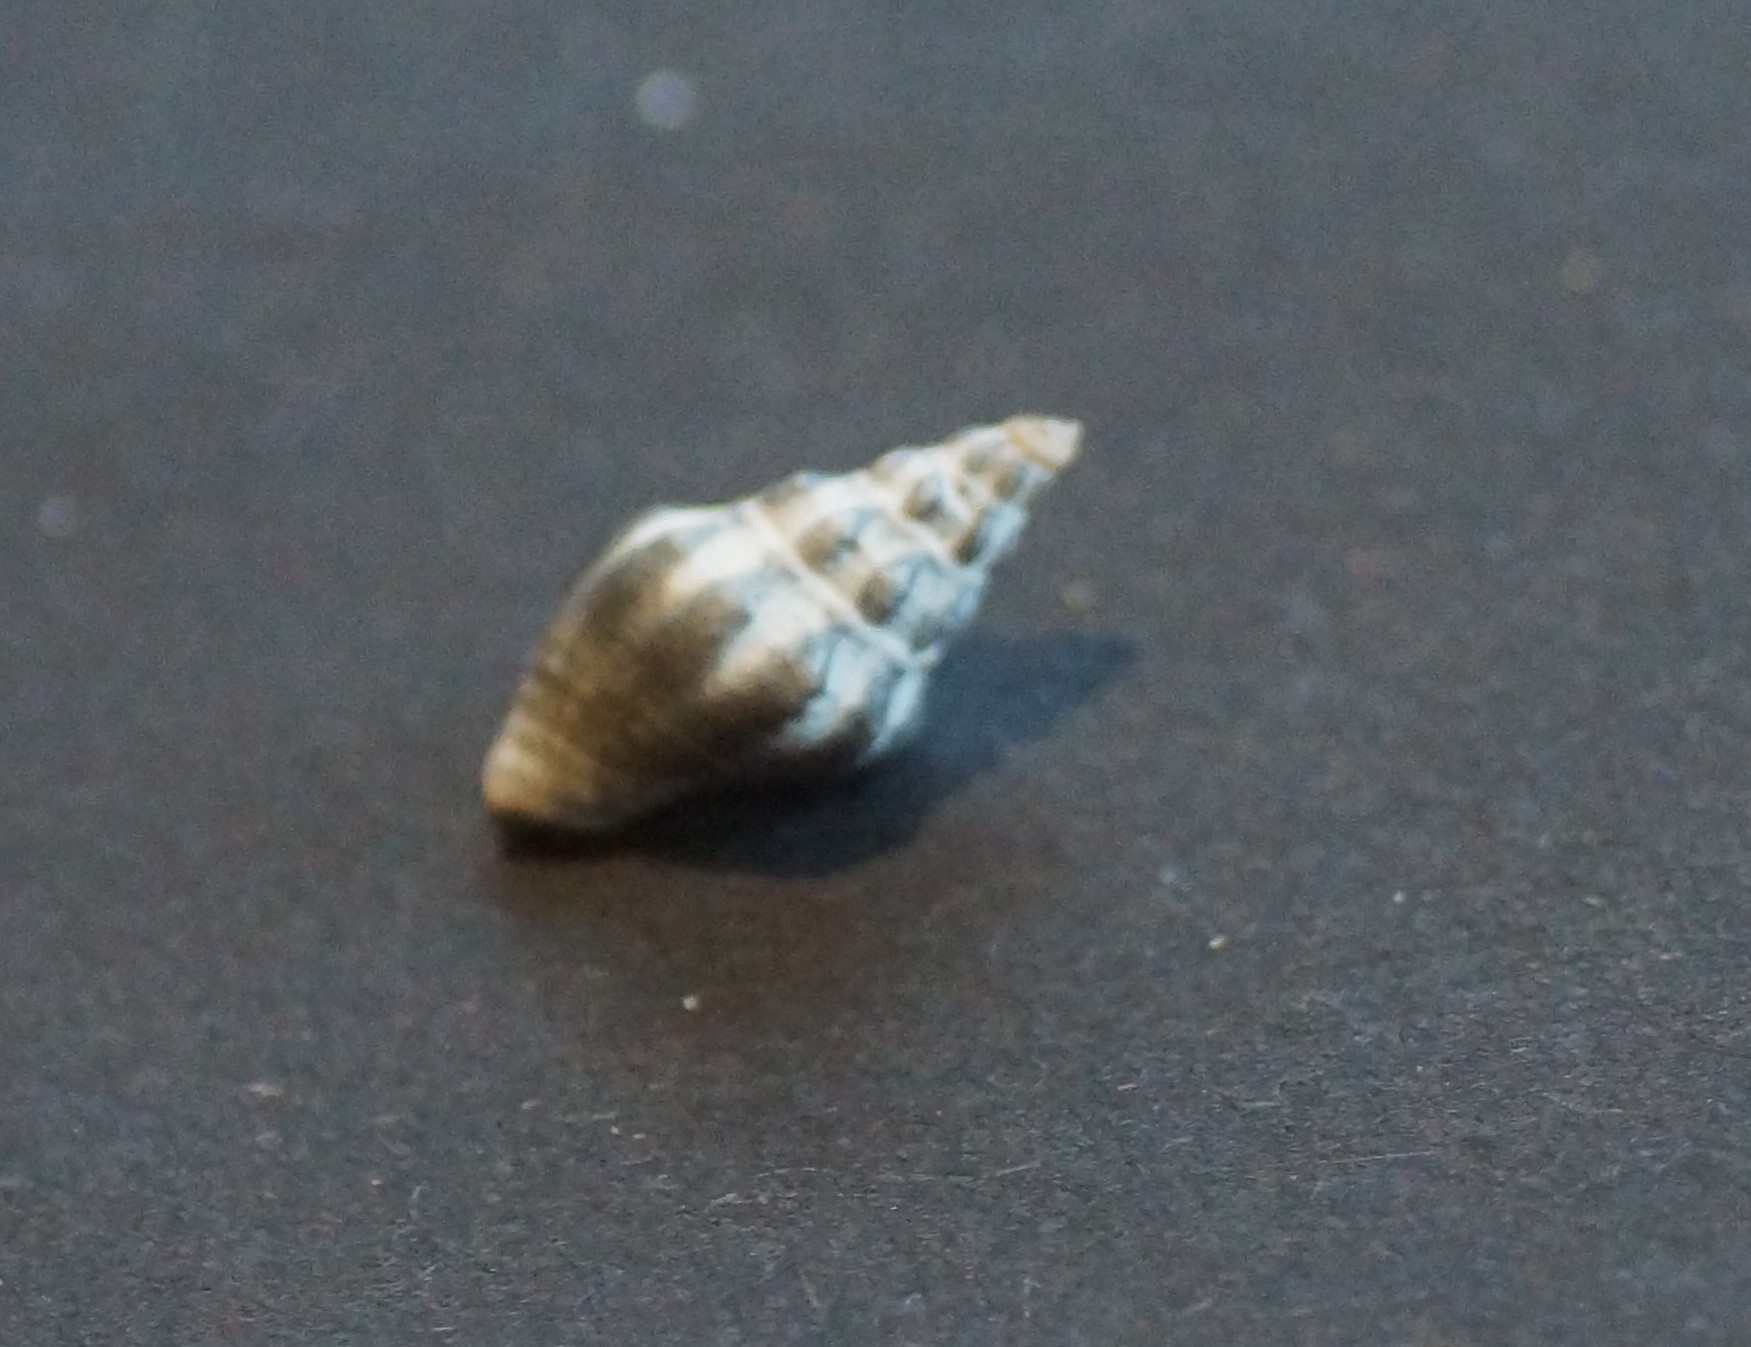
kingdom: Animalia
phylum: Mollusca
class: Gastropoda
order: Neogastropoda
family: Cominellidae
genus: Cominella
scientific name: Cominella eburnea
